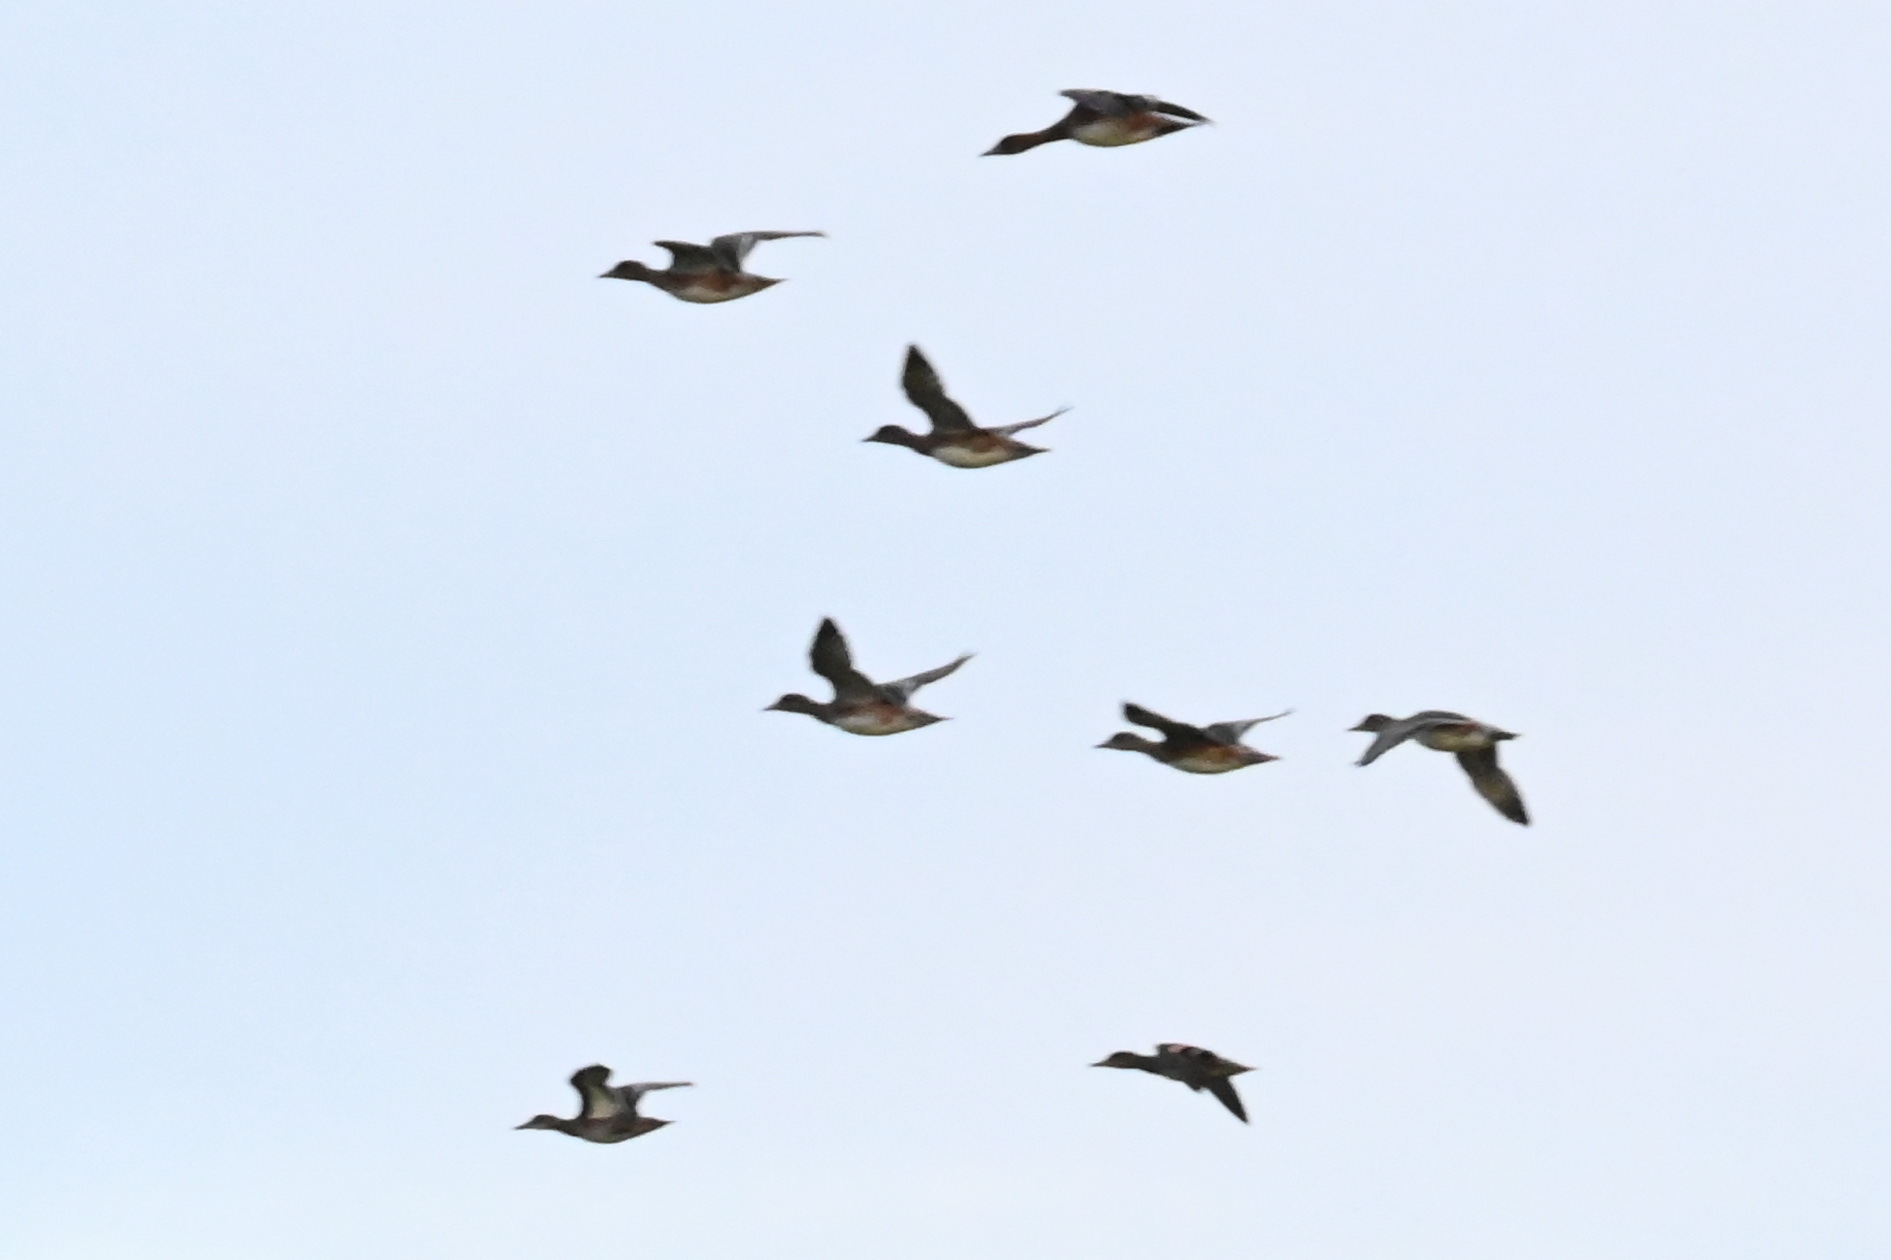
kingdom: Animalia
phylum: Chordata
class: Aves
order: Anseriformes
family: Anatidae
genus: Mareca
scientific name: Mareca penelope
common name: Eurasian wigeon
